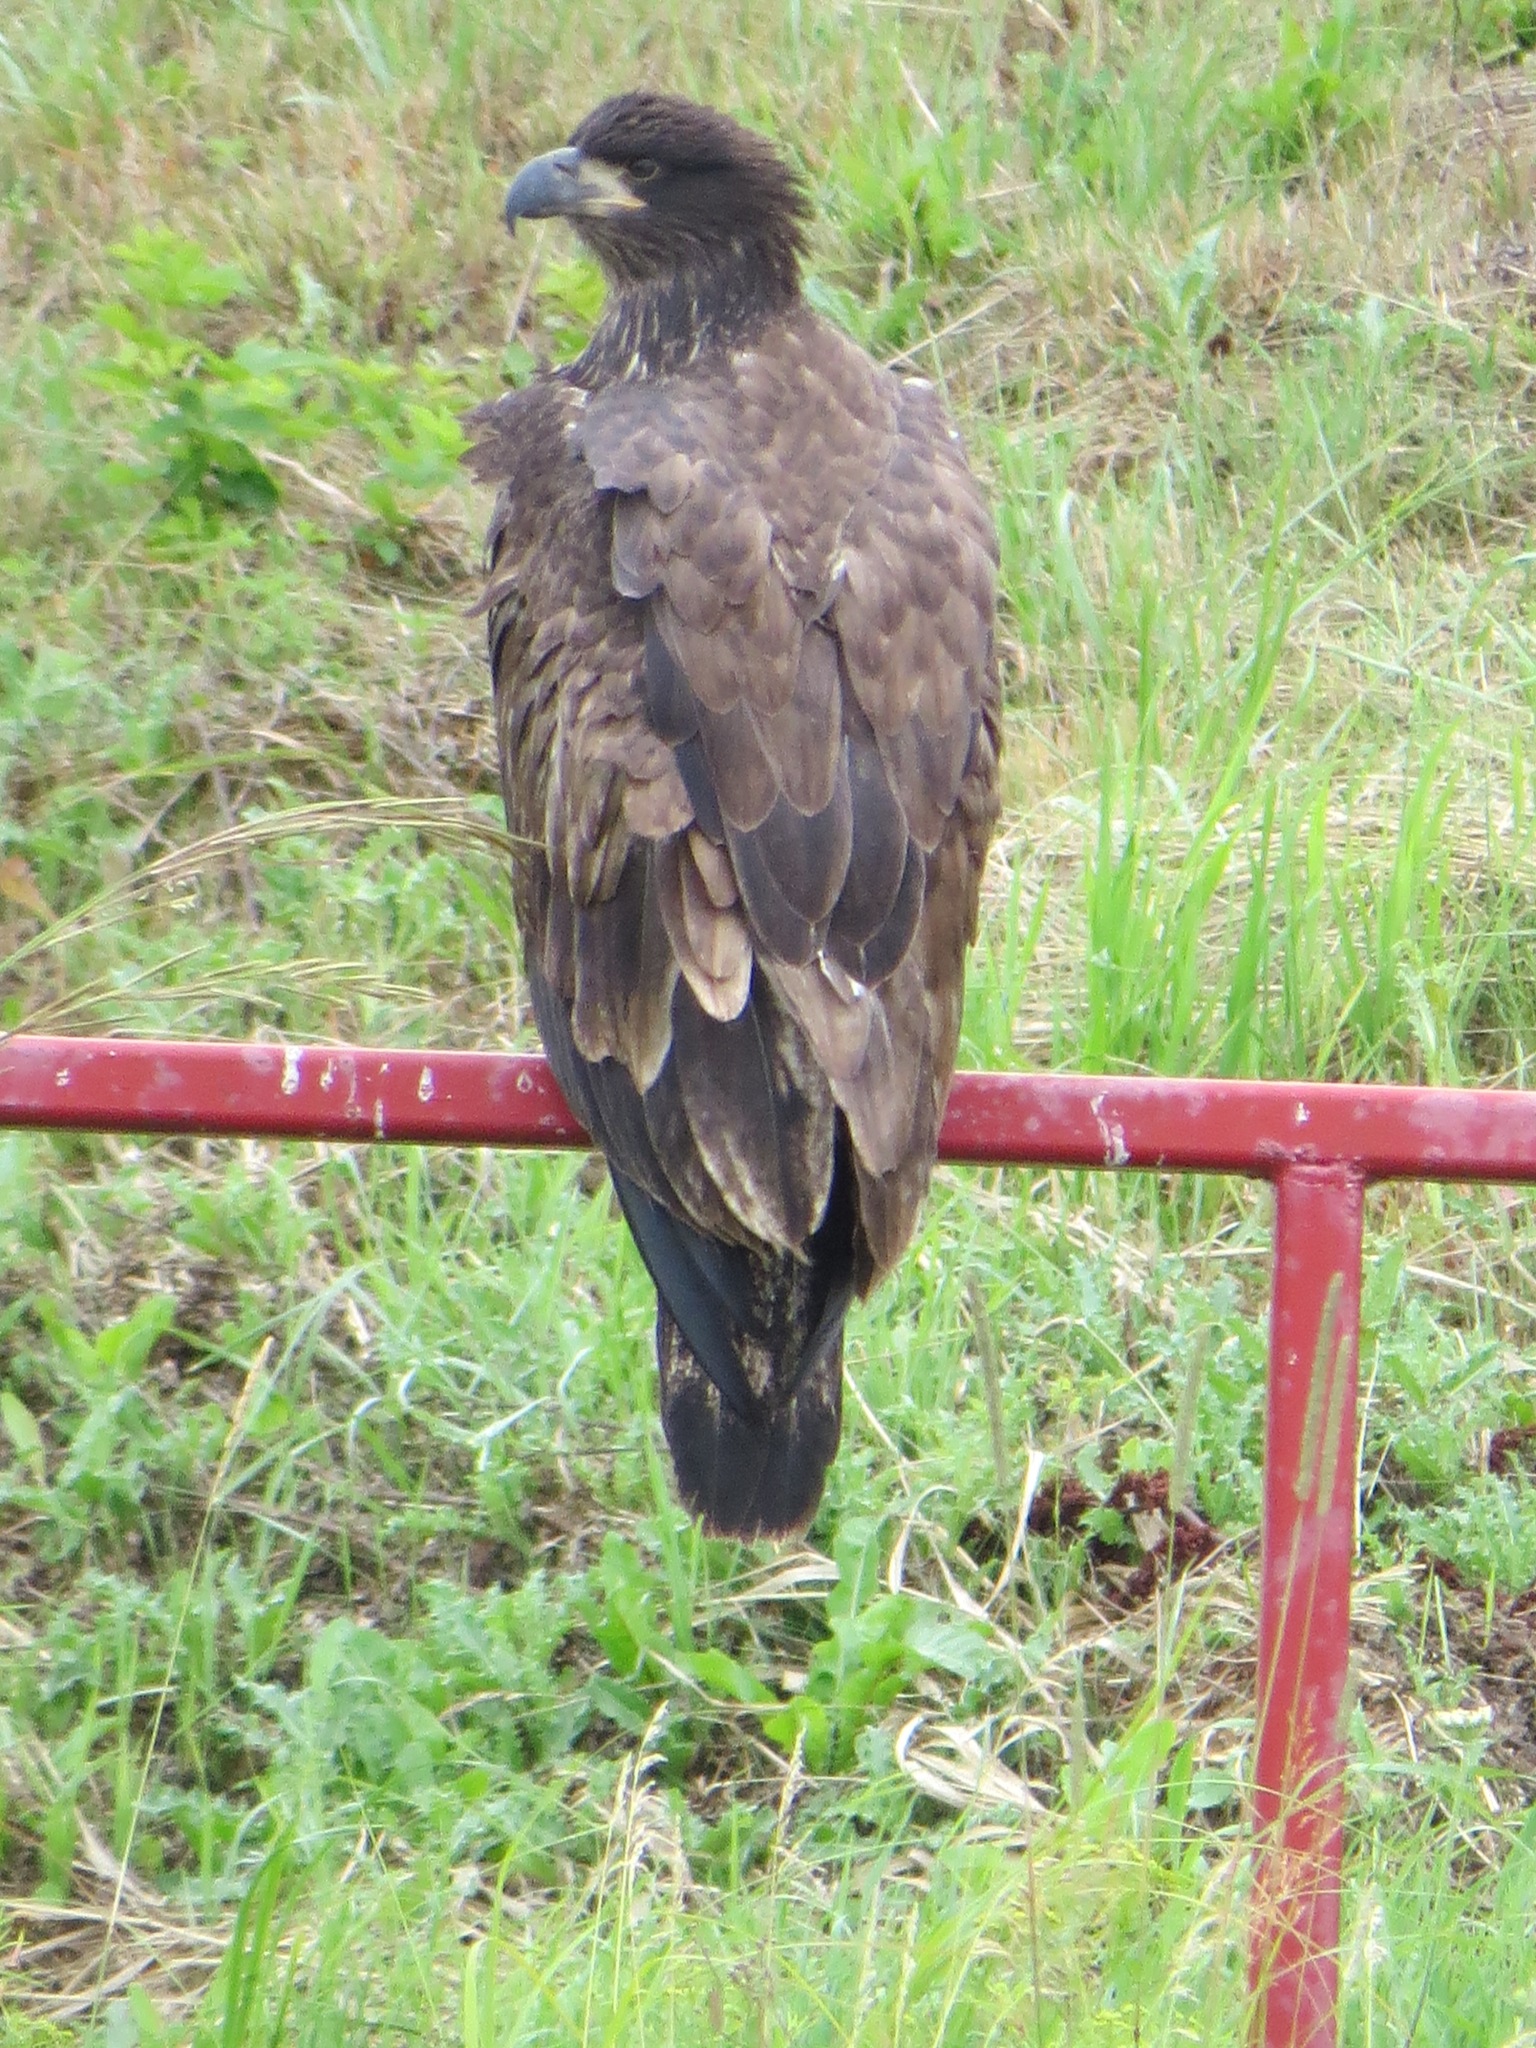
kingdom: Animalia
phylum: Chordata
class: Aves
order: Accipitriformes
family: Accipitridae
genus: Haliaeetus
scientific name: Haliaeetus leucocephalus
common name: Bald eagle
